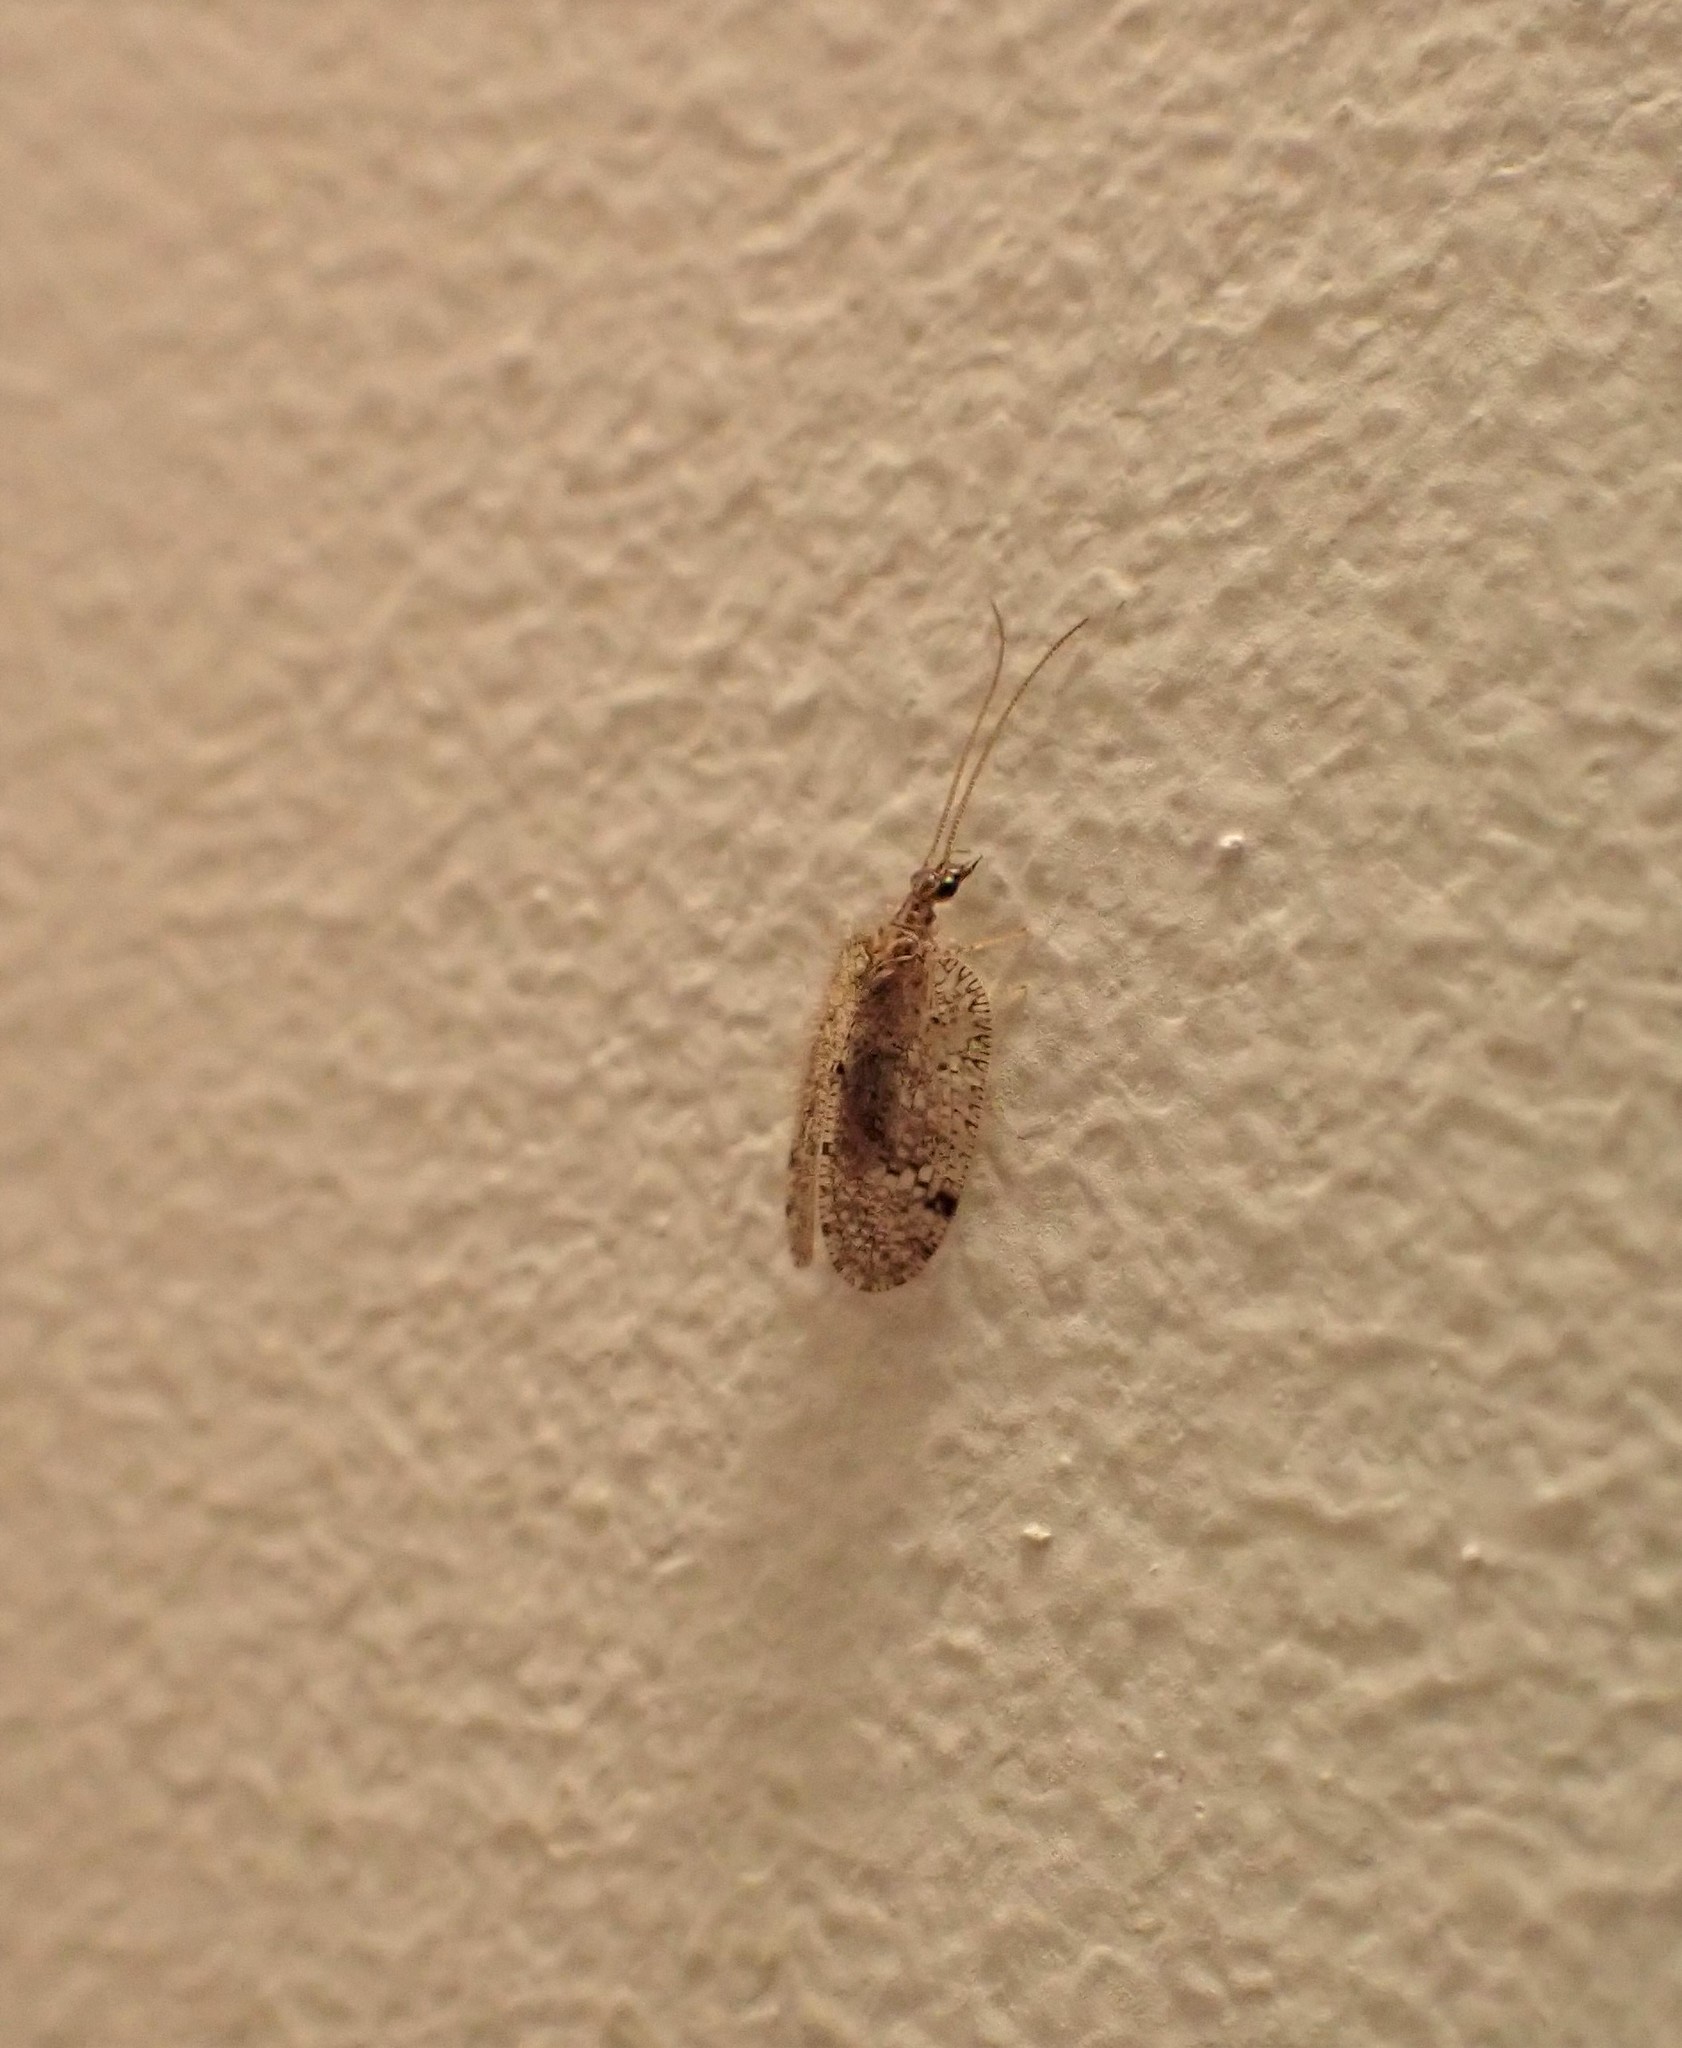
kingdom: Animalia
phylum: Arthropoda
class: Insecta
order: Neuroptera
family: Hemerobiidae
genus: Psectra
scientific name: Psectra nakaharai
